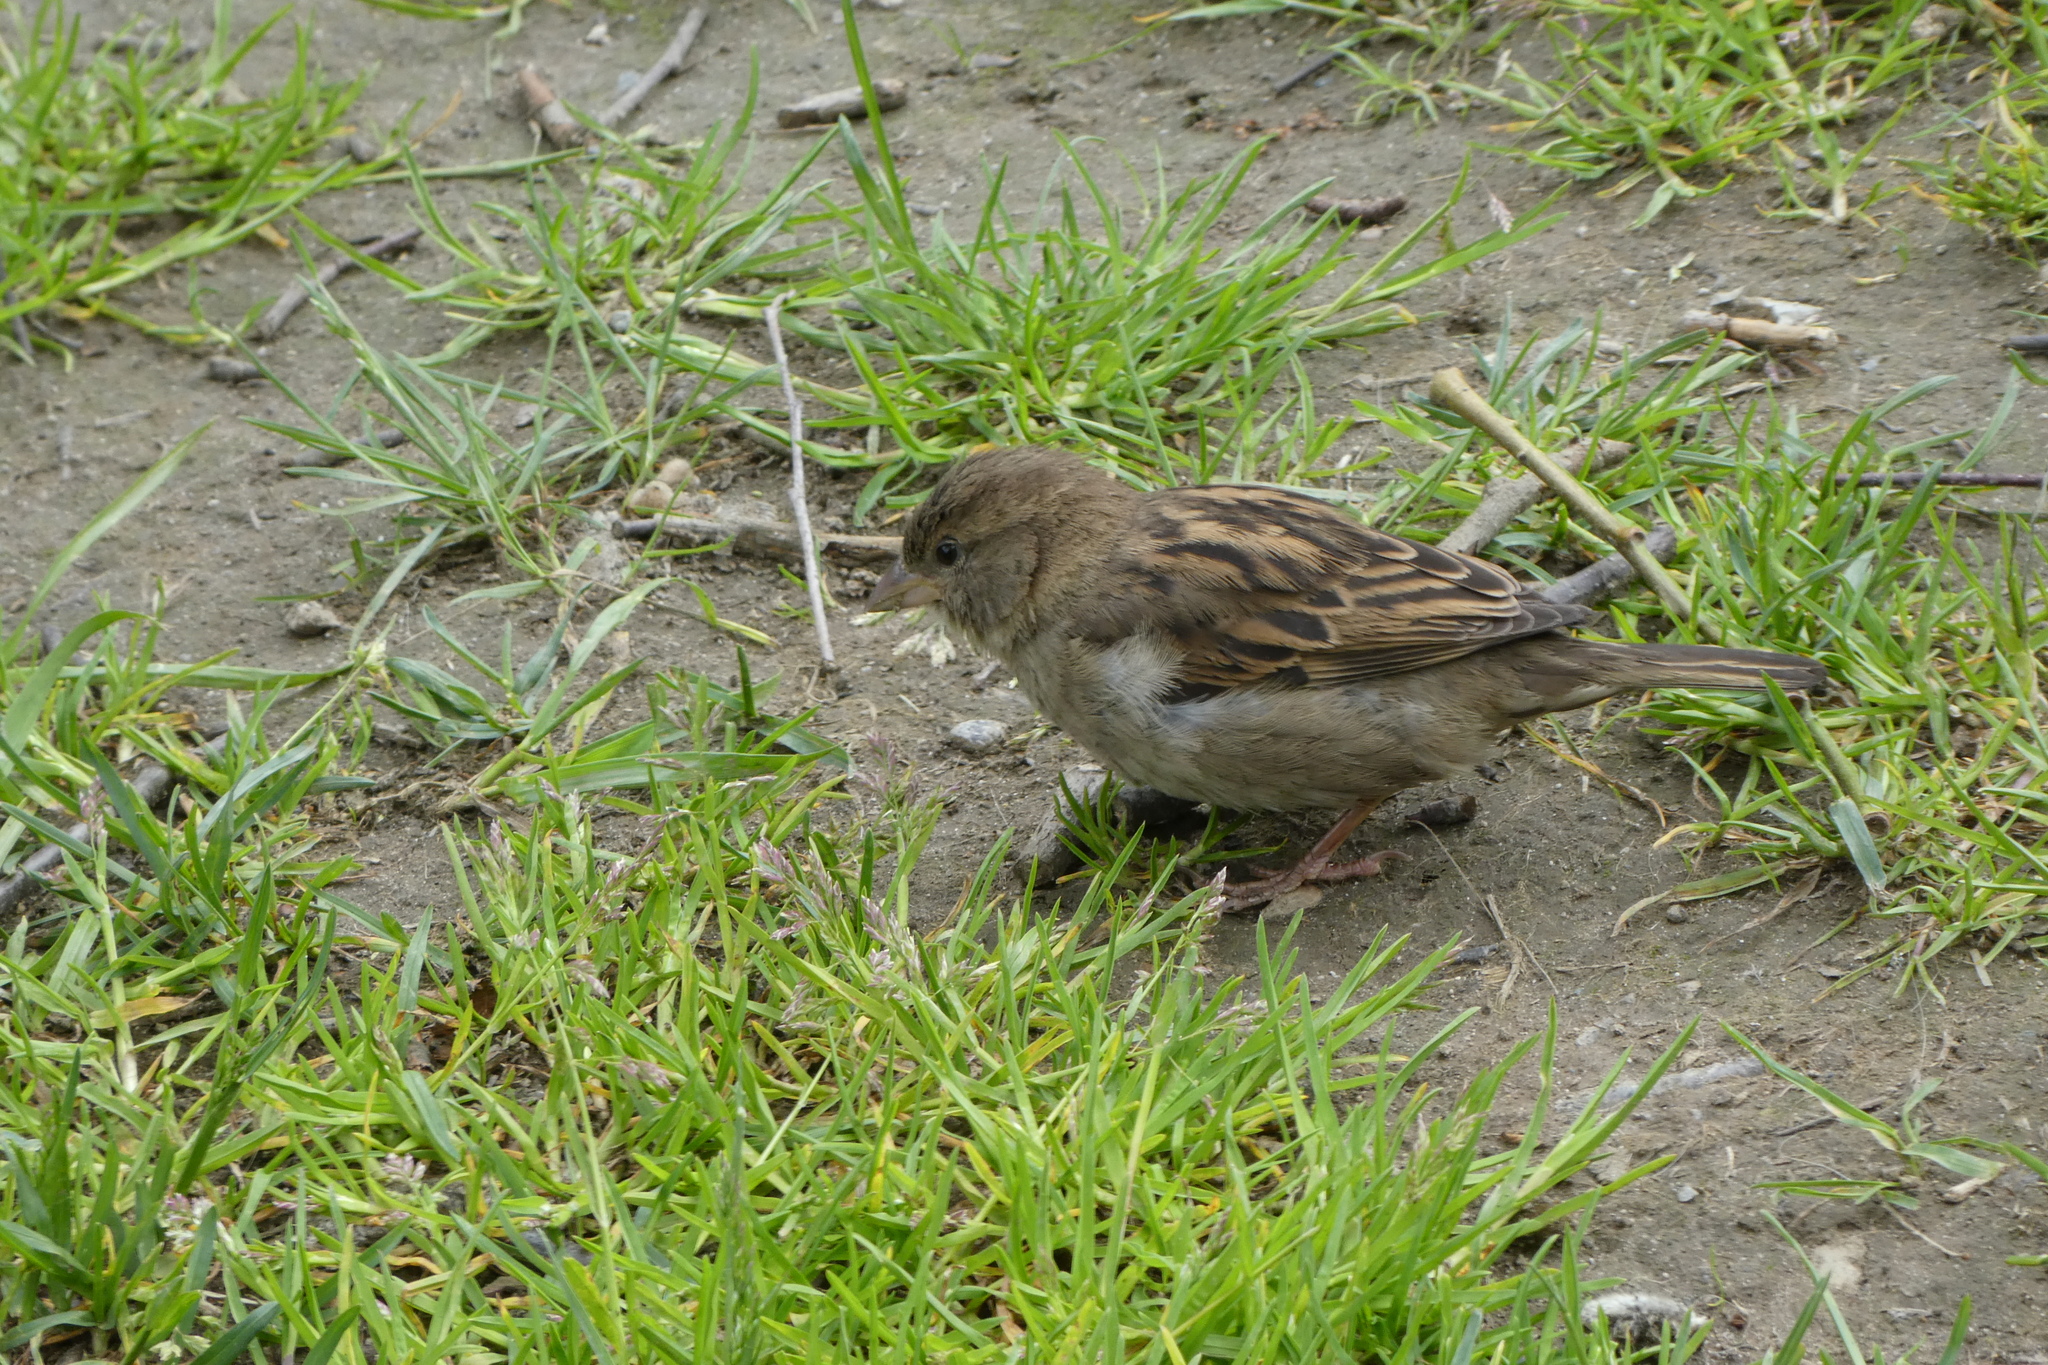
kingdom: Animalia
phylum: Chordata
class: Aves
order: Passeriformes
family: Passeridae
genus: Passer
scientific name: Passer domesticus
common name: House sparrow
